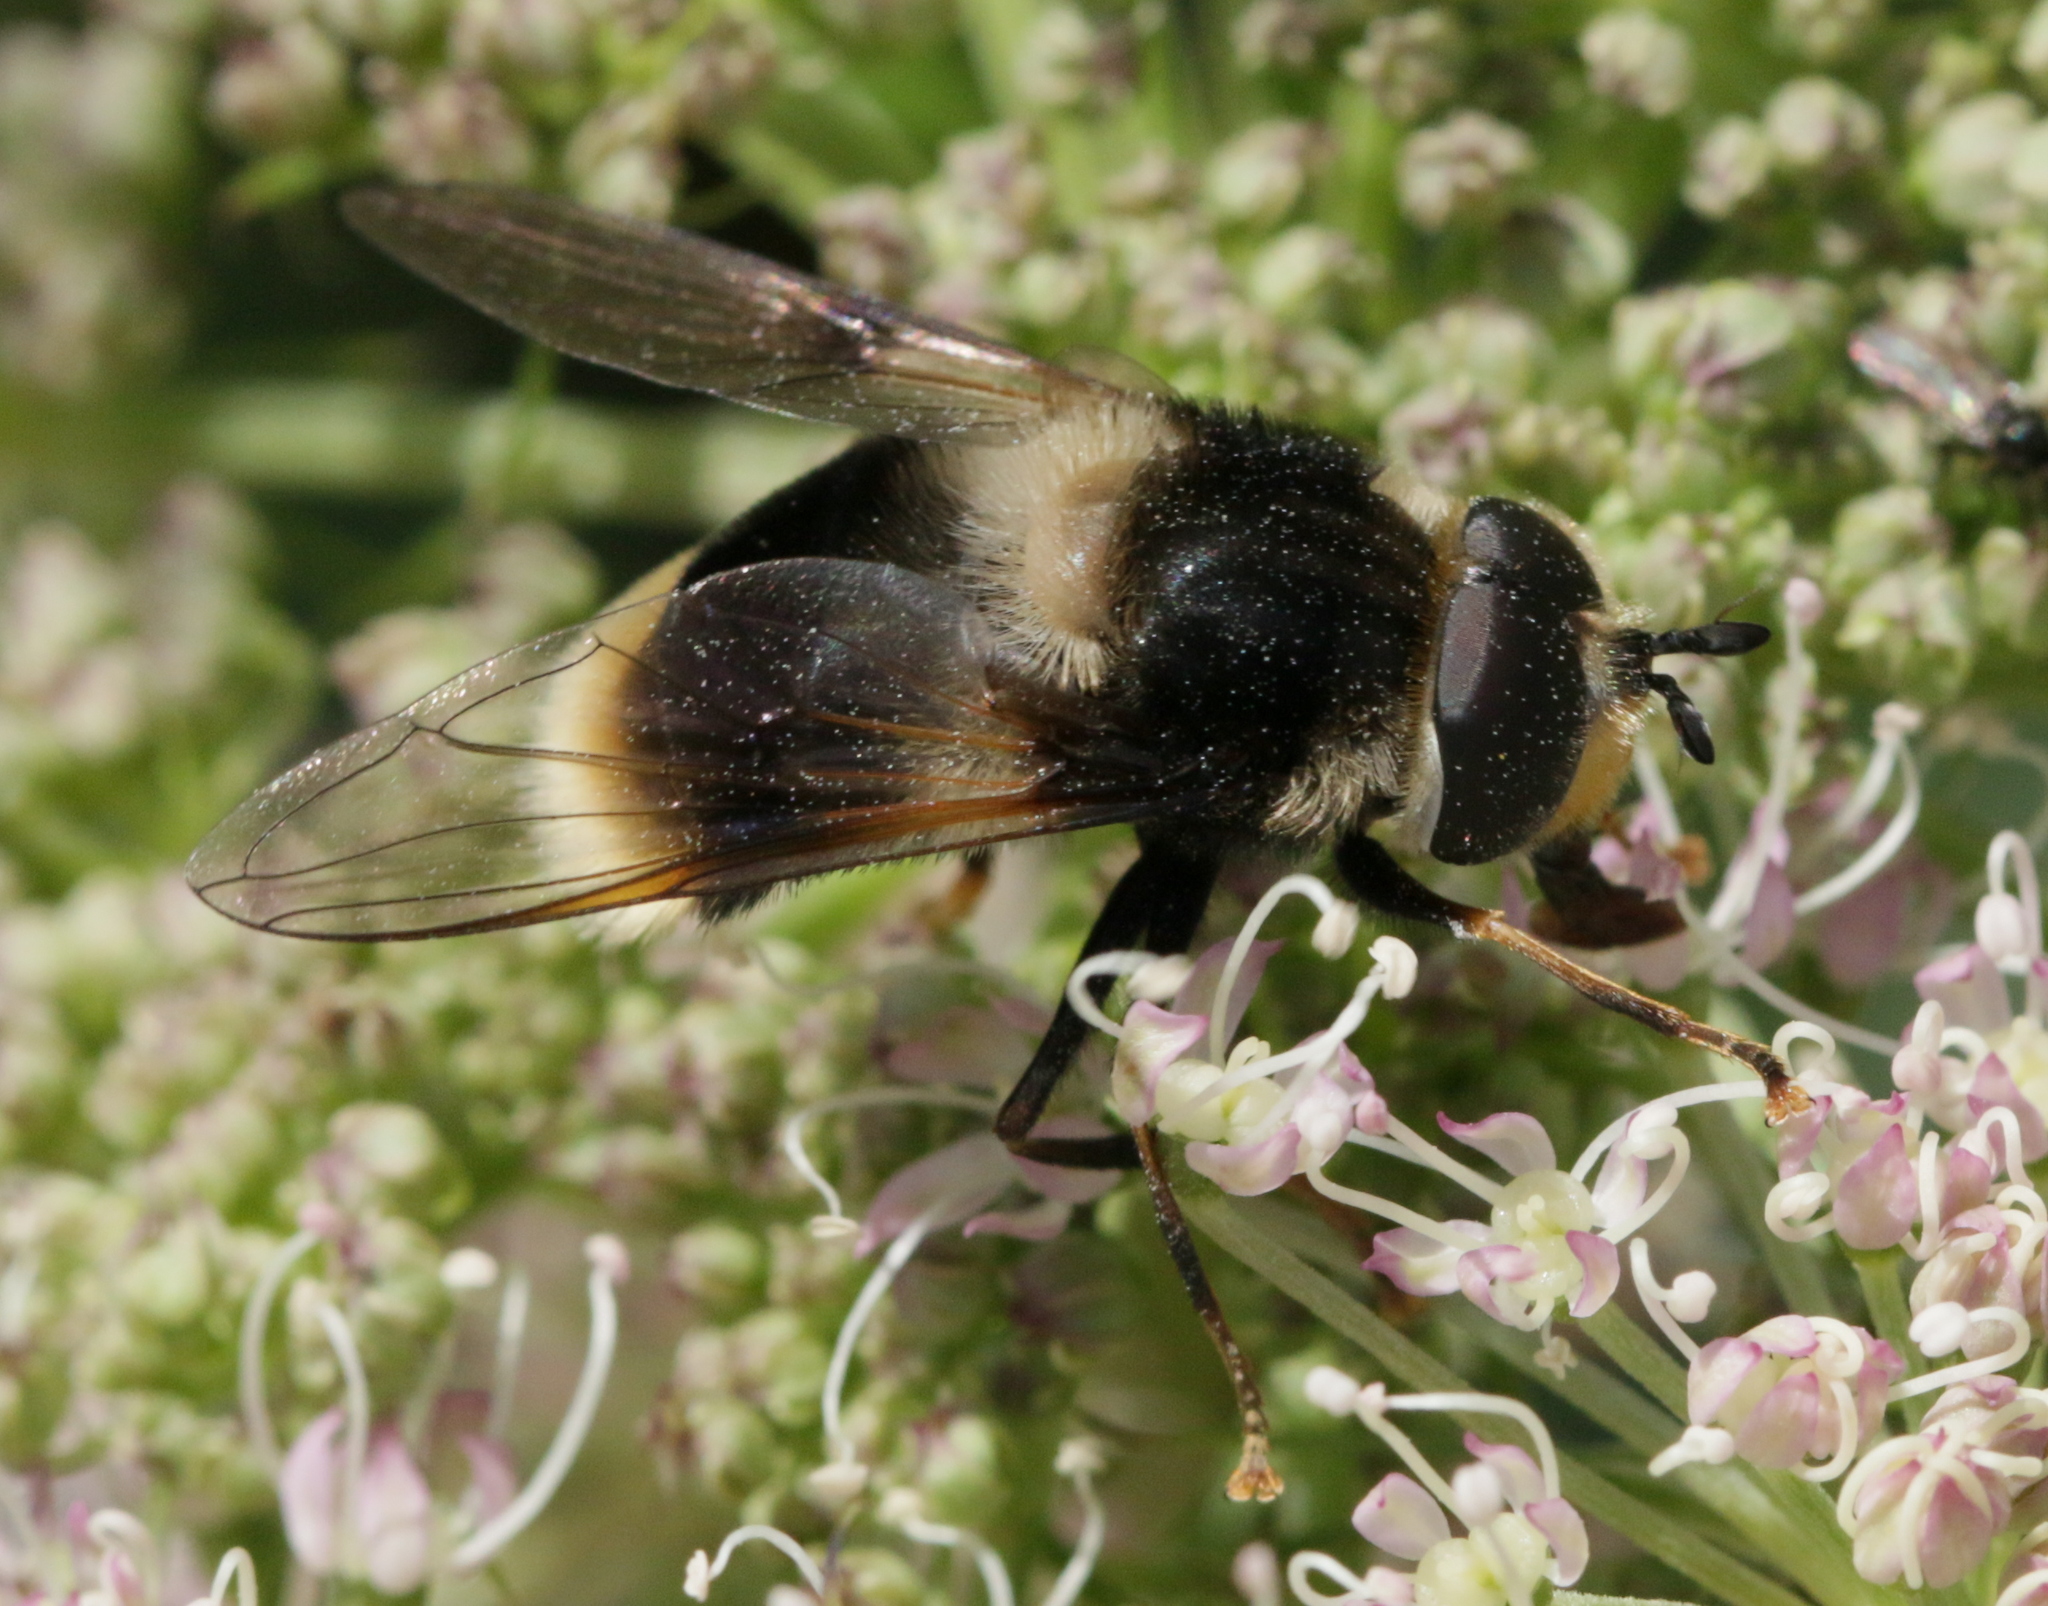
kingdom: Animalia
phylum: Arthropoda
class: Insecta
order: Diptera
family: Syrphidae
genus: Eriozona
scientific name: Eriozona syrphoides
